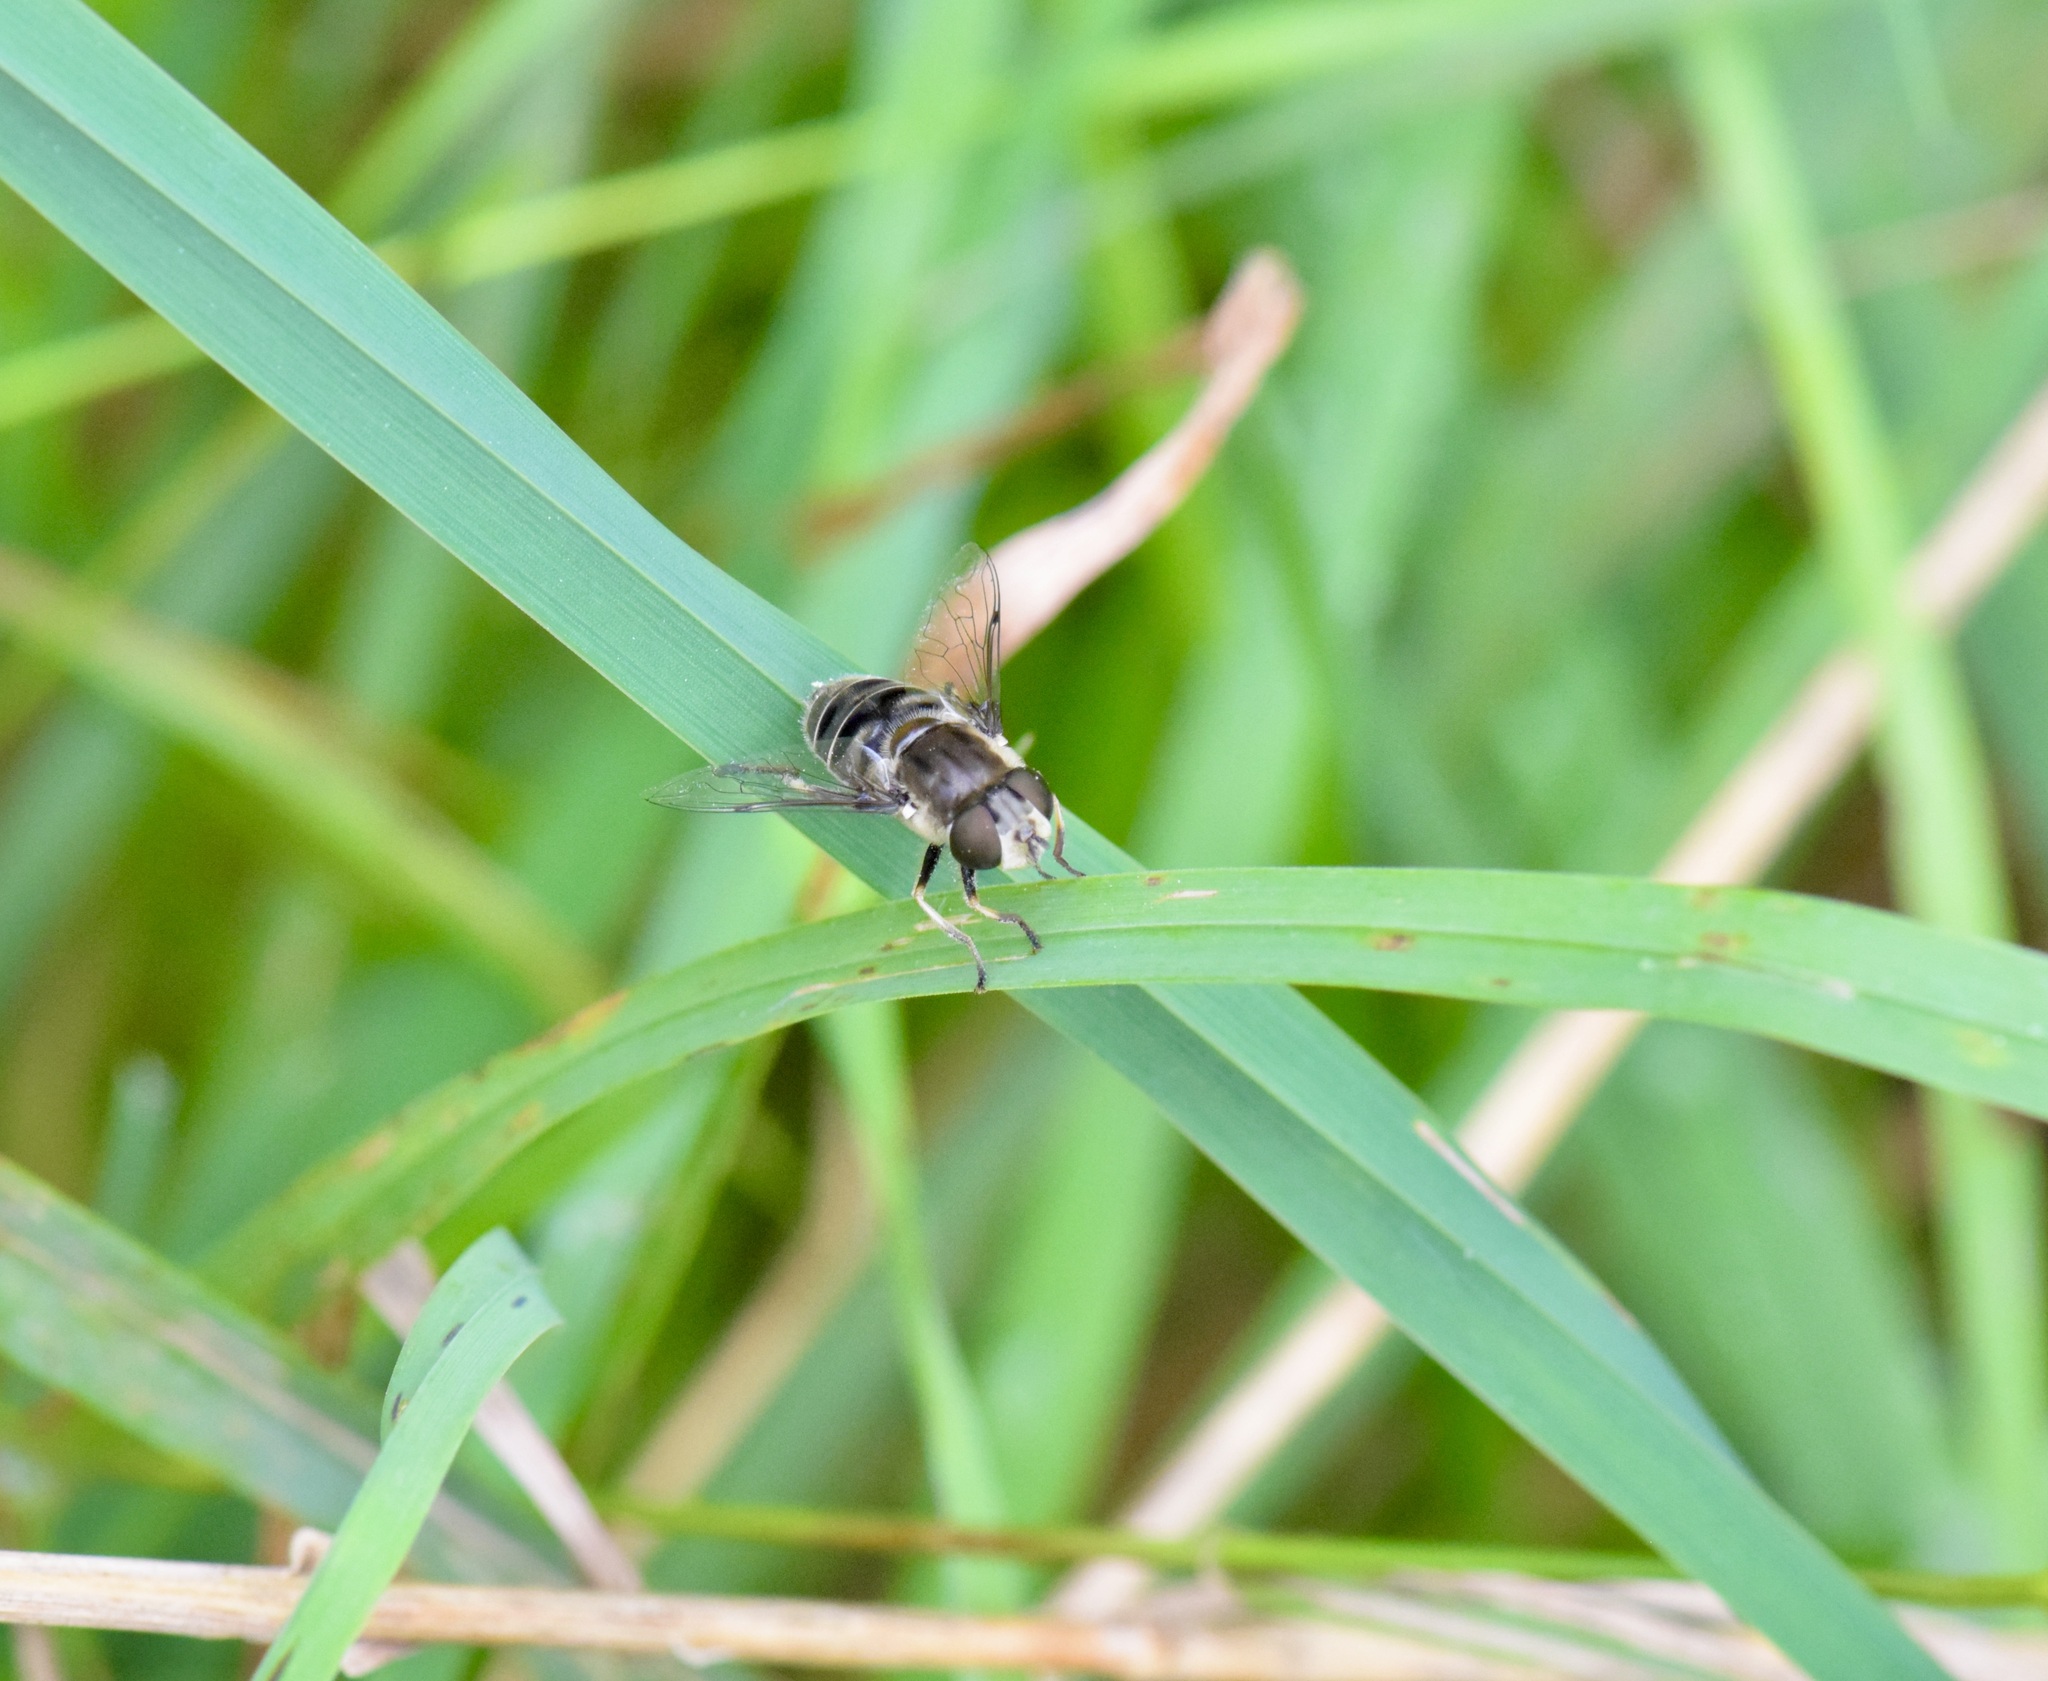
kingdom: Animalia
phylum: Arthropoda
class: Insecta
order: Diptera
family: Syrphidae
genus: Eristalis
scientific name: Eristalis dimidiata
